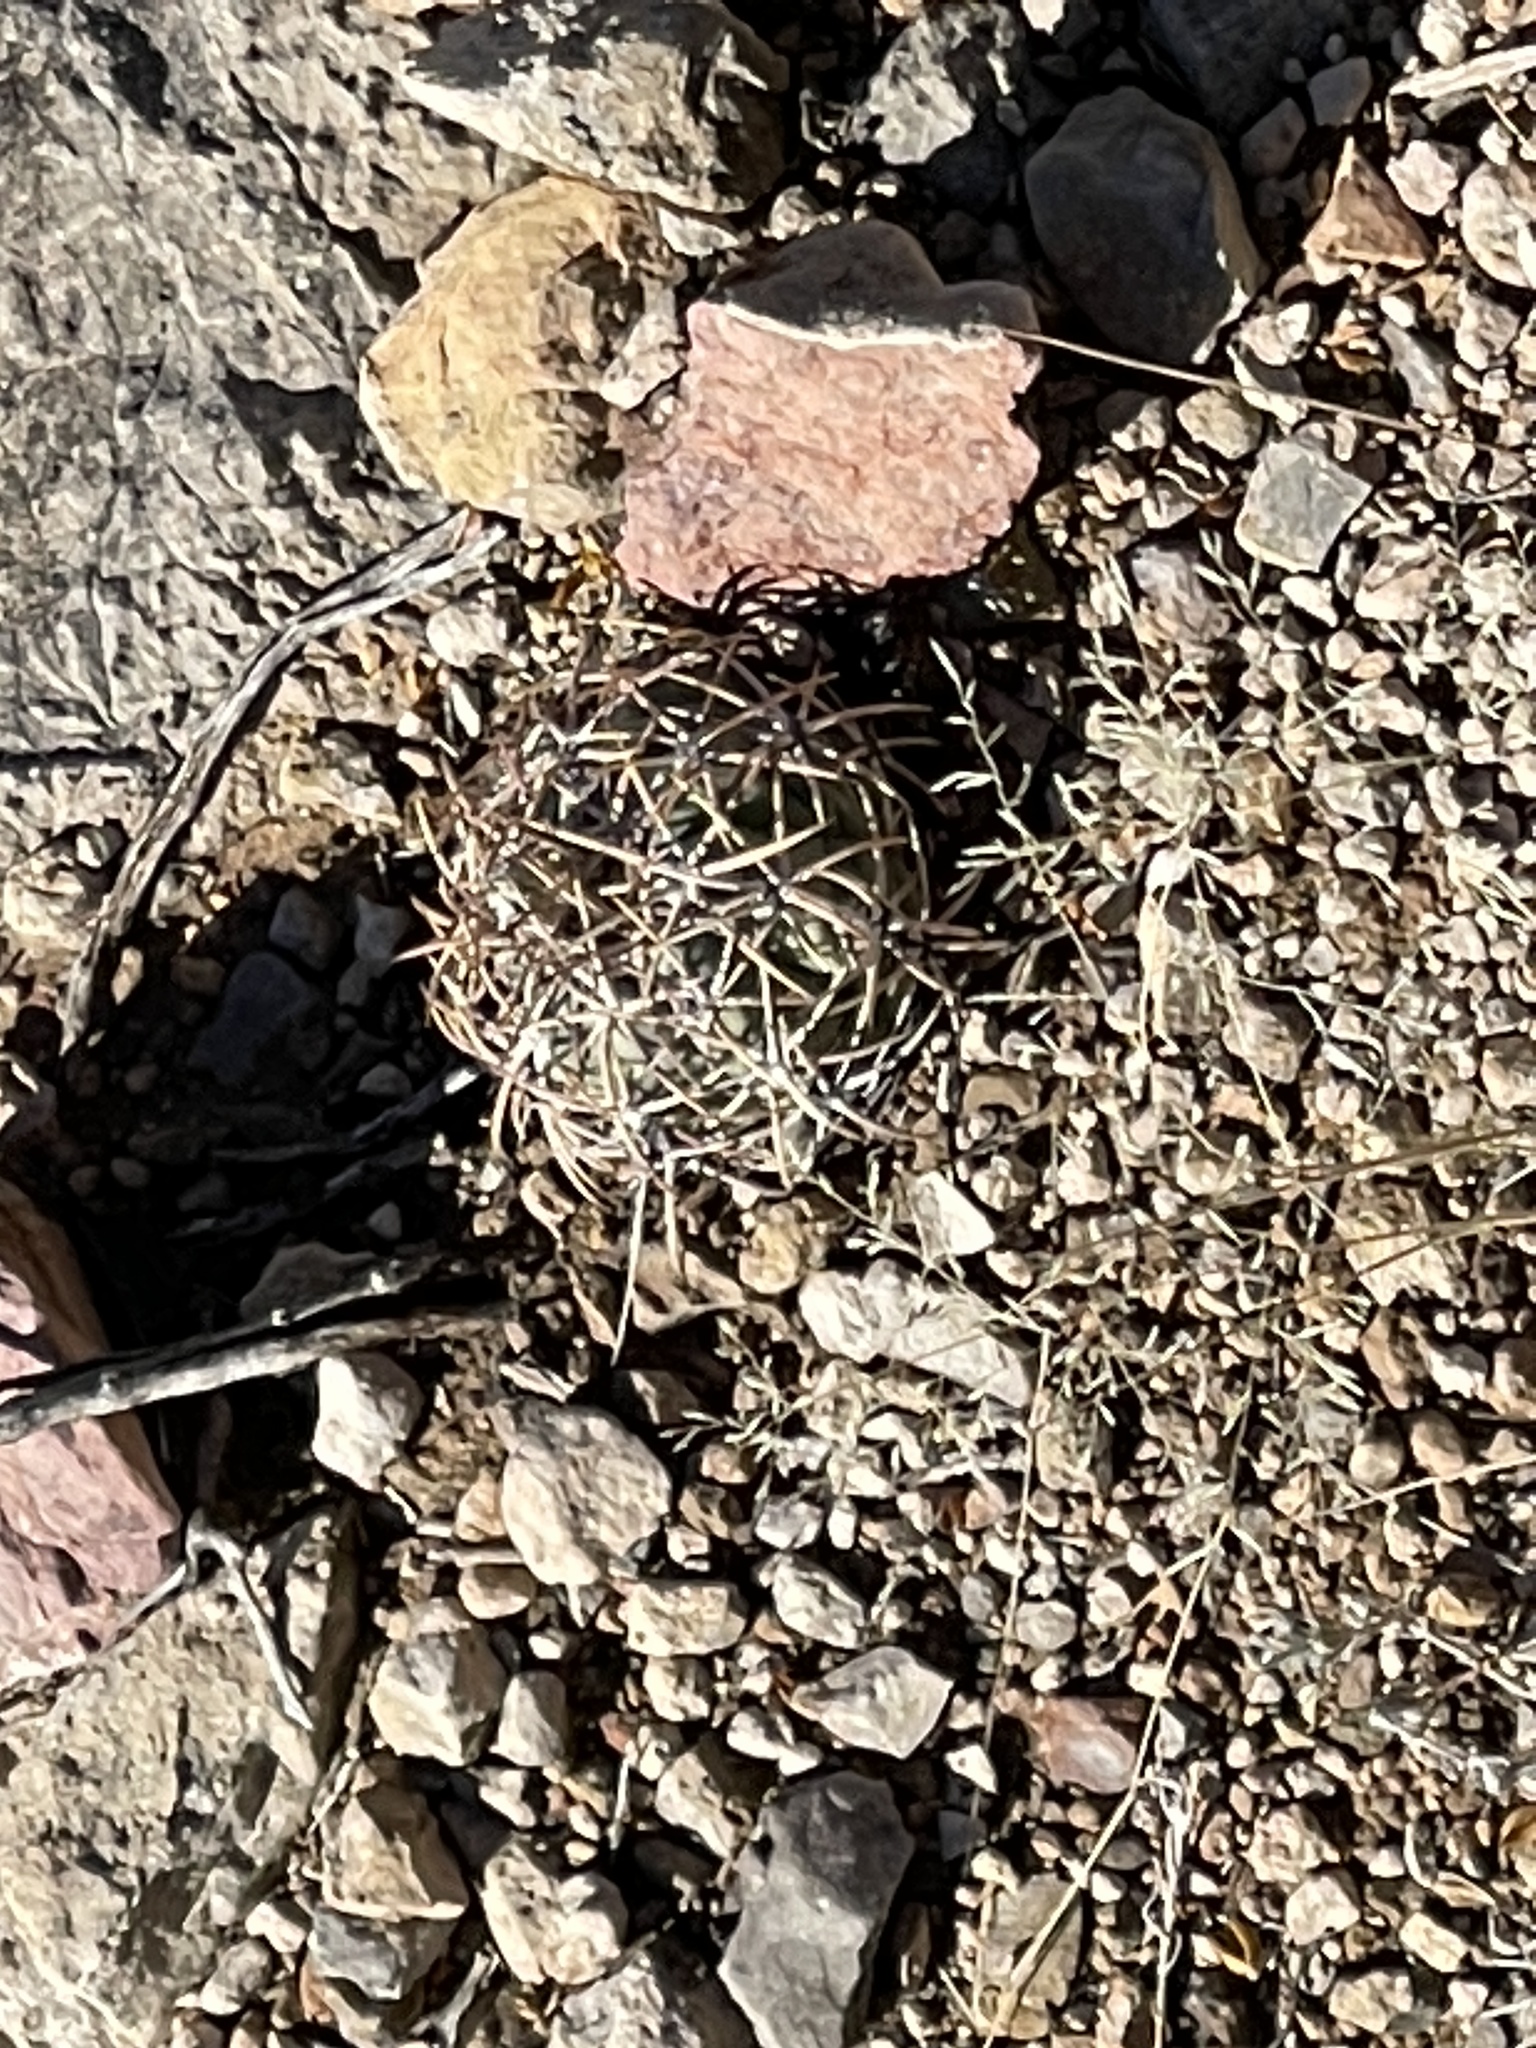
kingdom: Plantae
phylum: Tracheophyta
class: Magnoliopsida
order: Caryophyllales
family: Cactaceae
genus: Echinocactus
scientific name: Echinocactus horizonthalonius
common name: Devilshead
